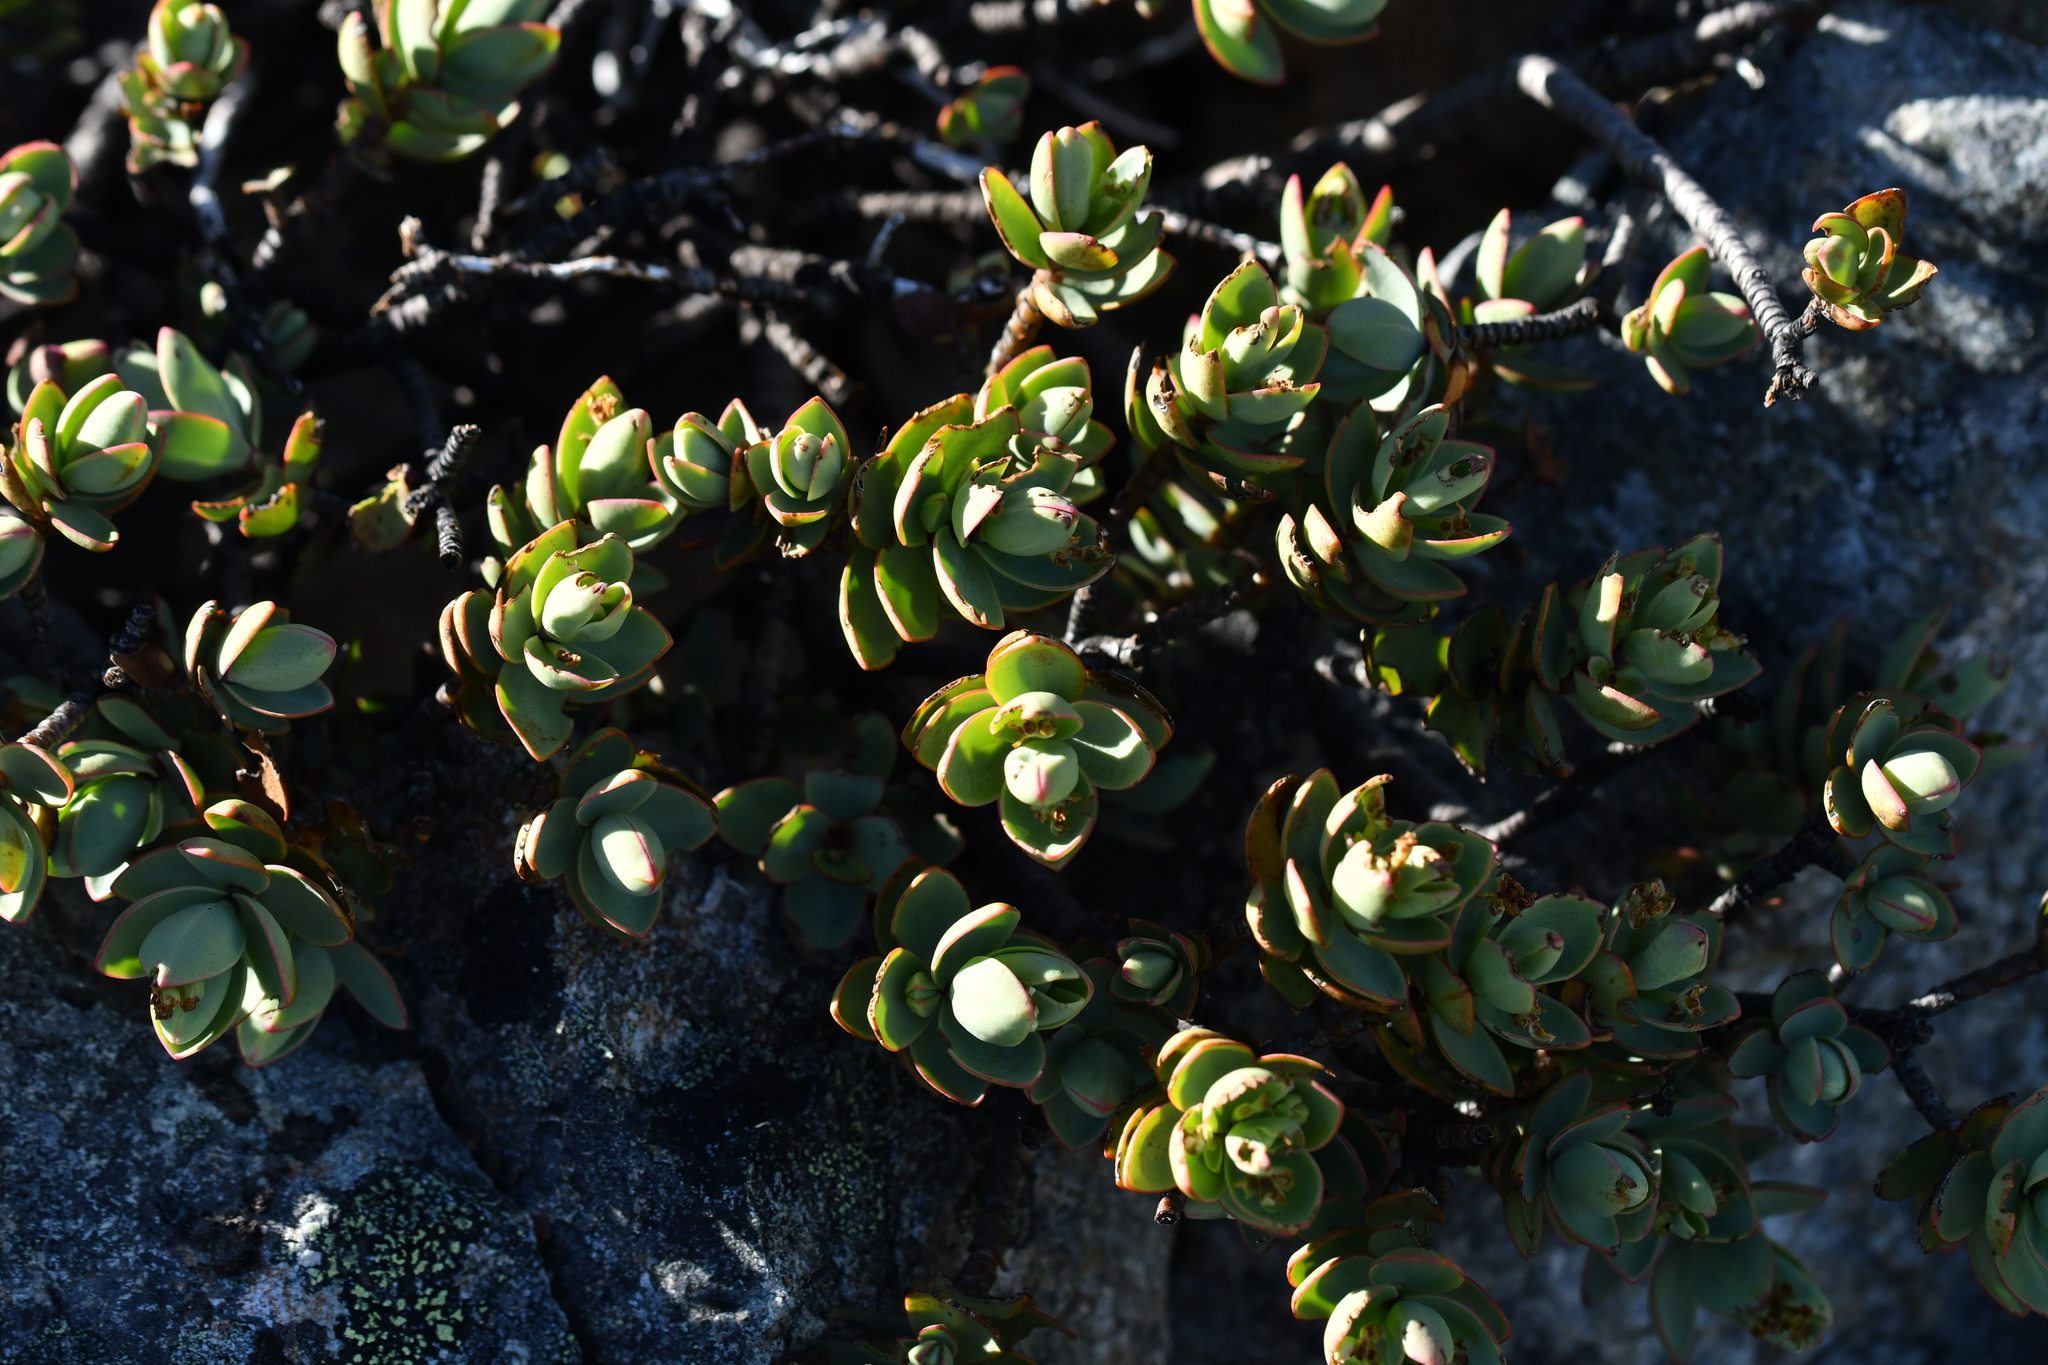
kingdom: Plantae
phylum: Tracheophyta
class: Magnoliopsida
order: Lamiales
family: Plantaginaceae
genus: Veronica
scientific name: Veronica pinguifolia
